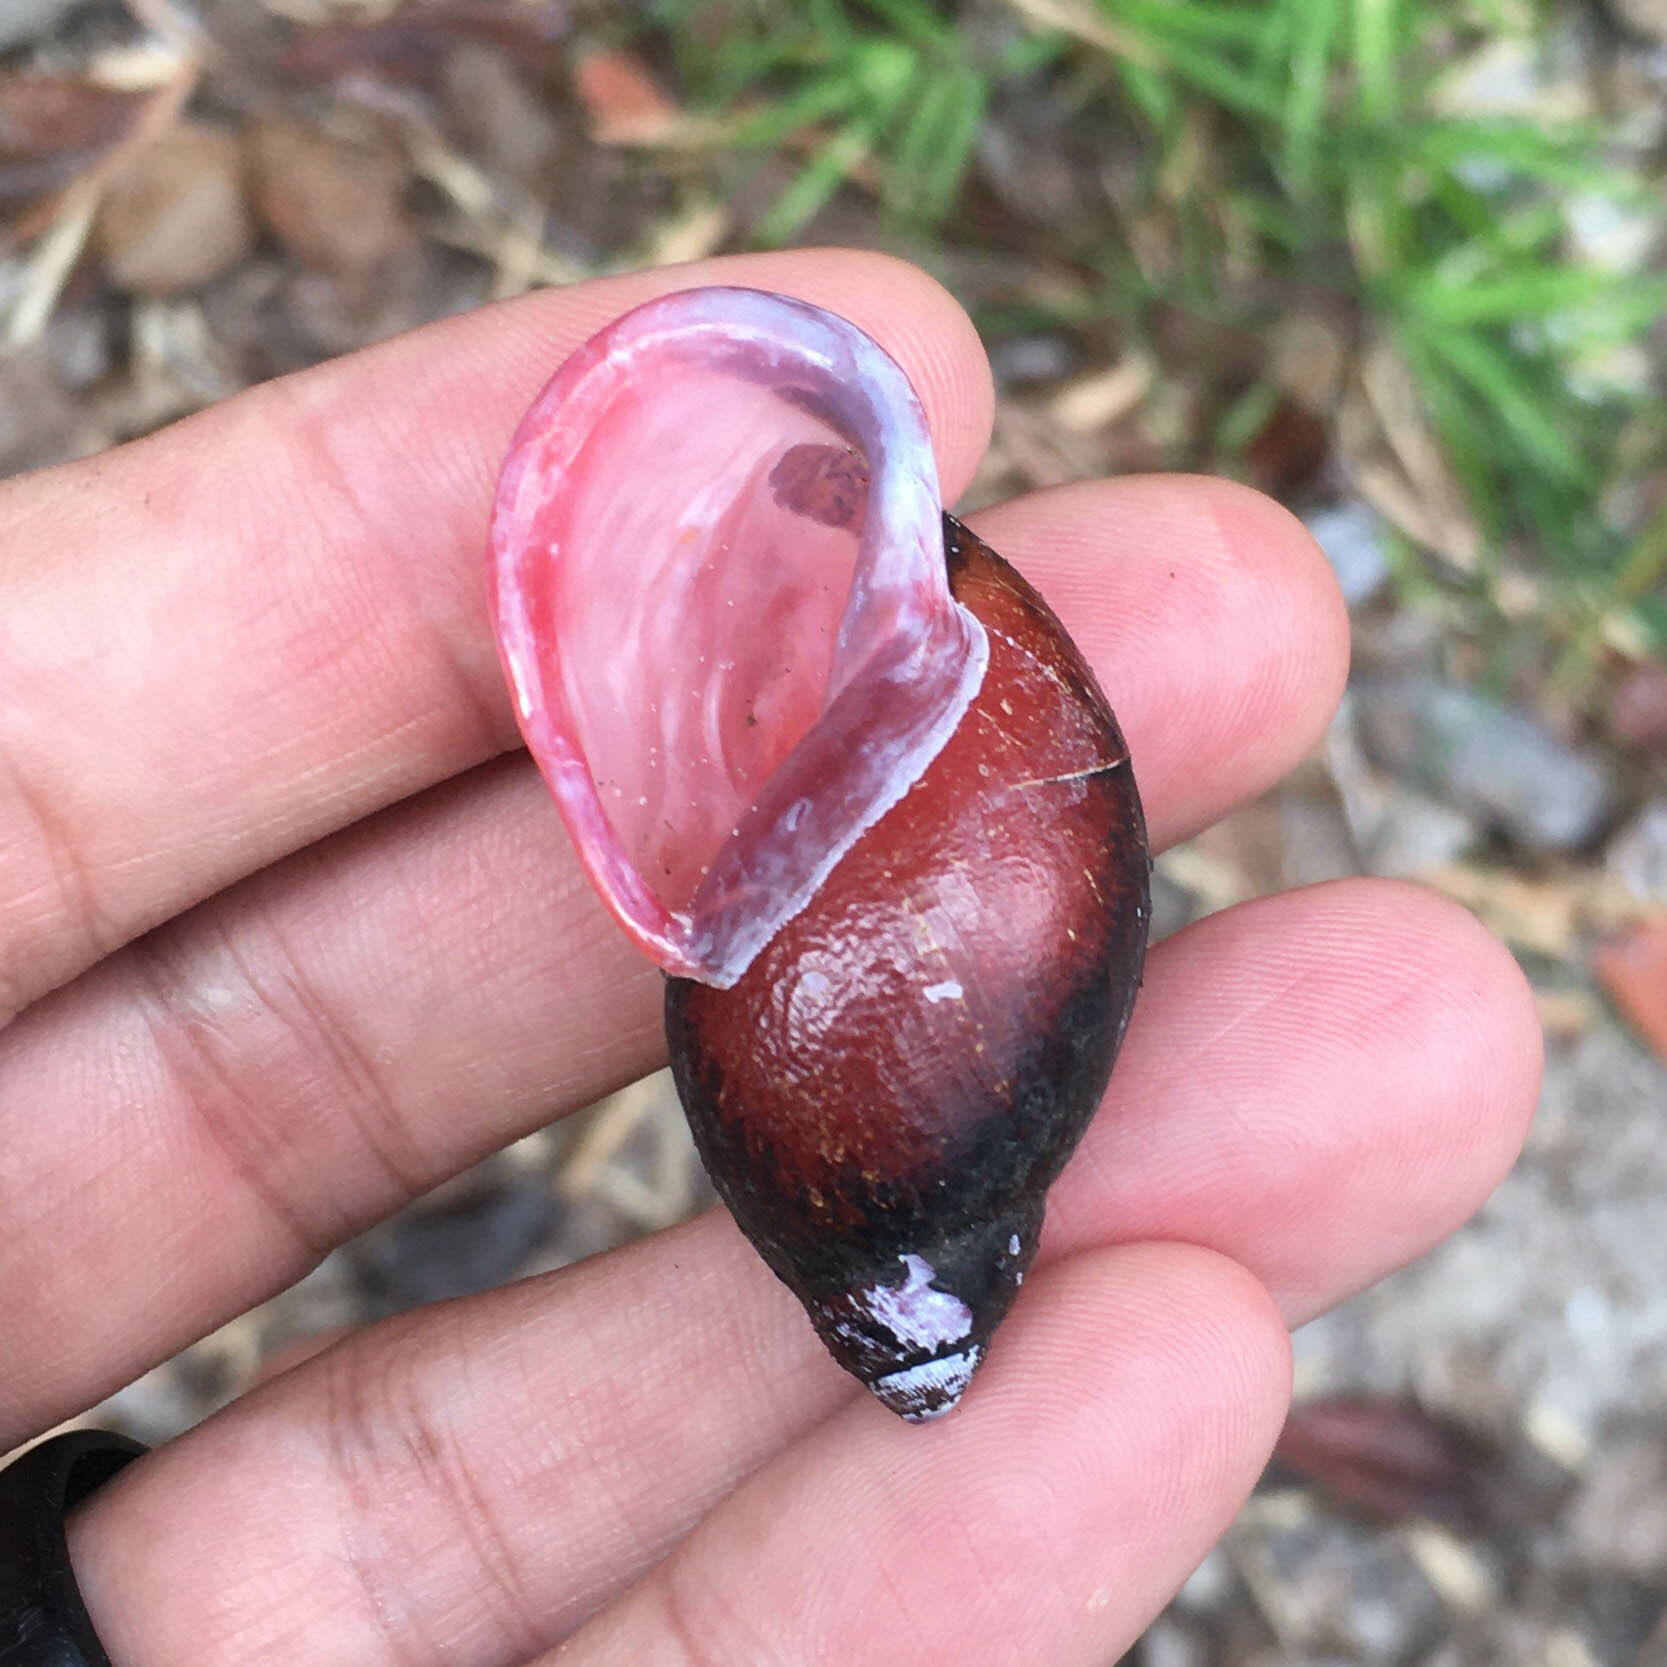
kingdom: Animalia
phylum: Mollusca
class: Gastropoda
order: Stylommatophora
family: Strophocheilidae
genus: Strophocheilus
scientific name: Strophocheilus pudicus
